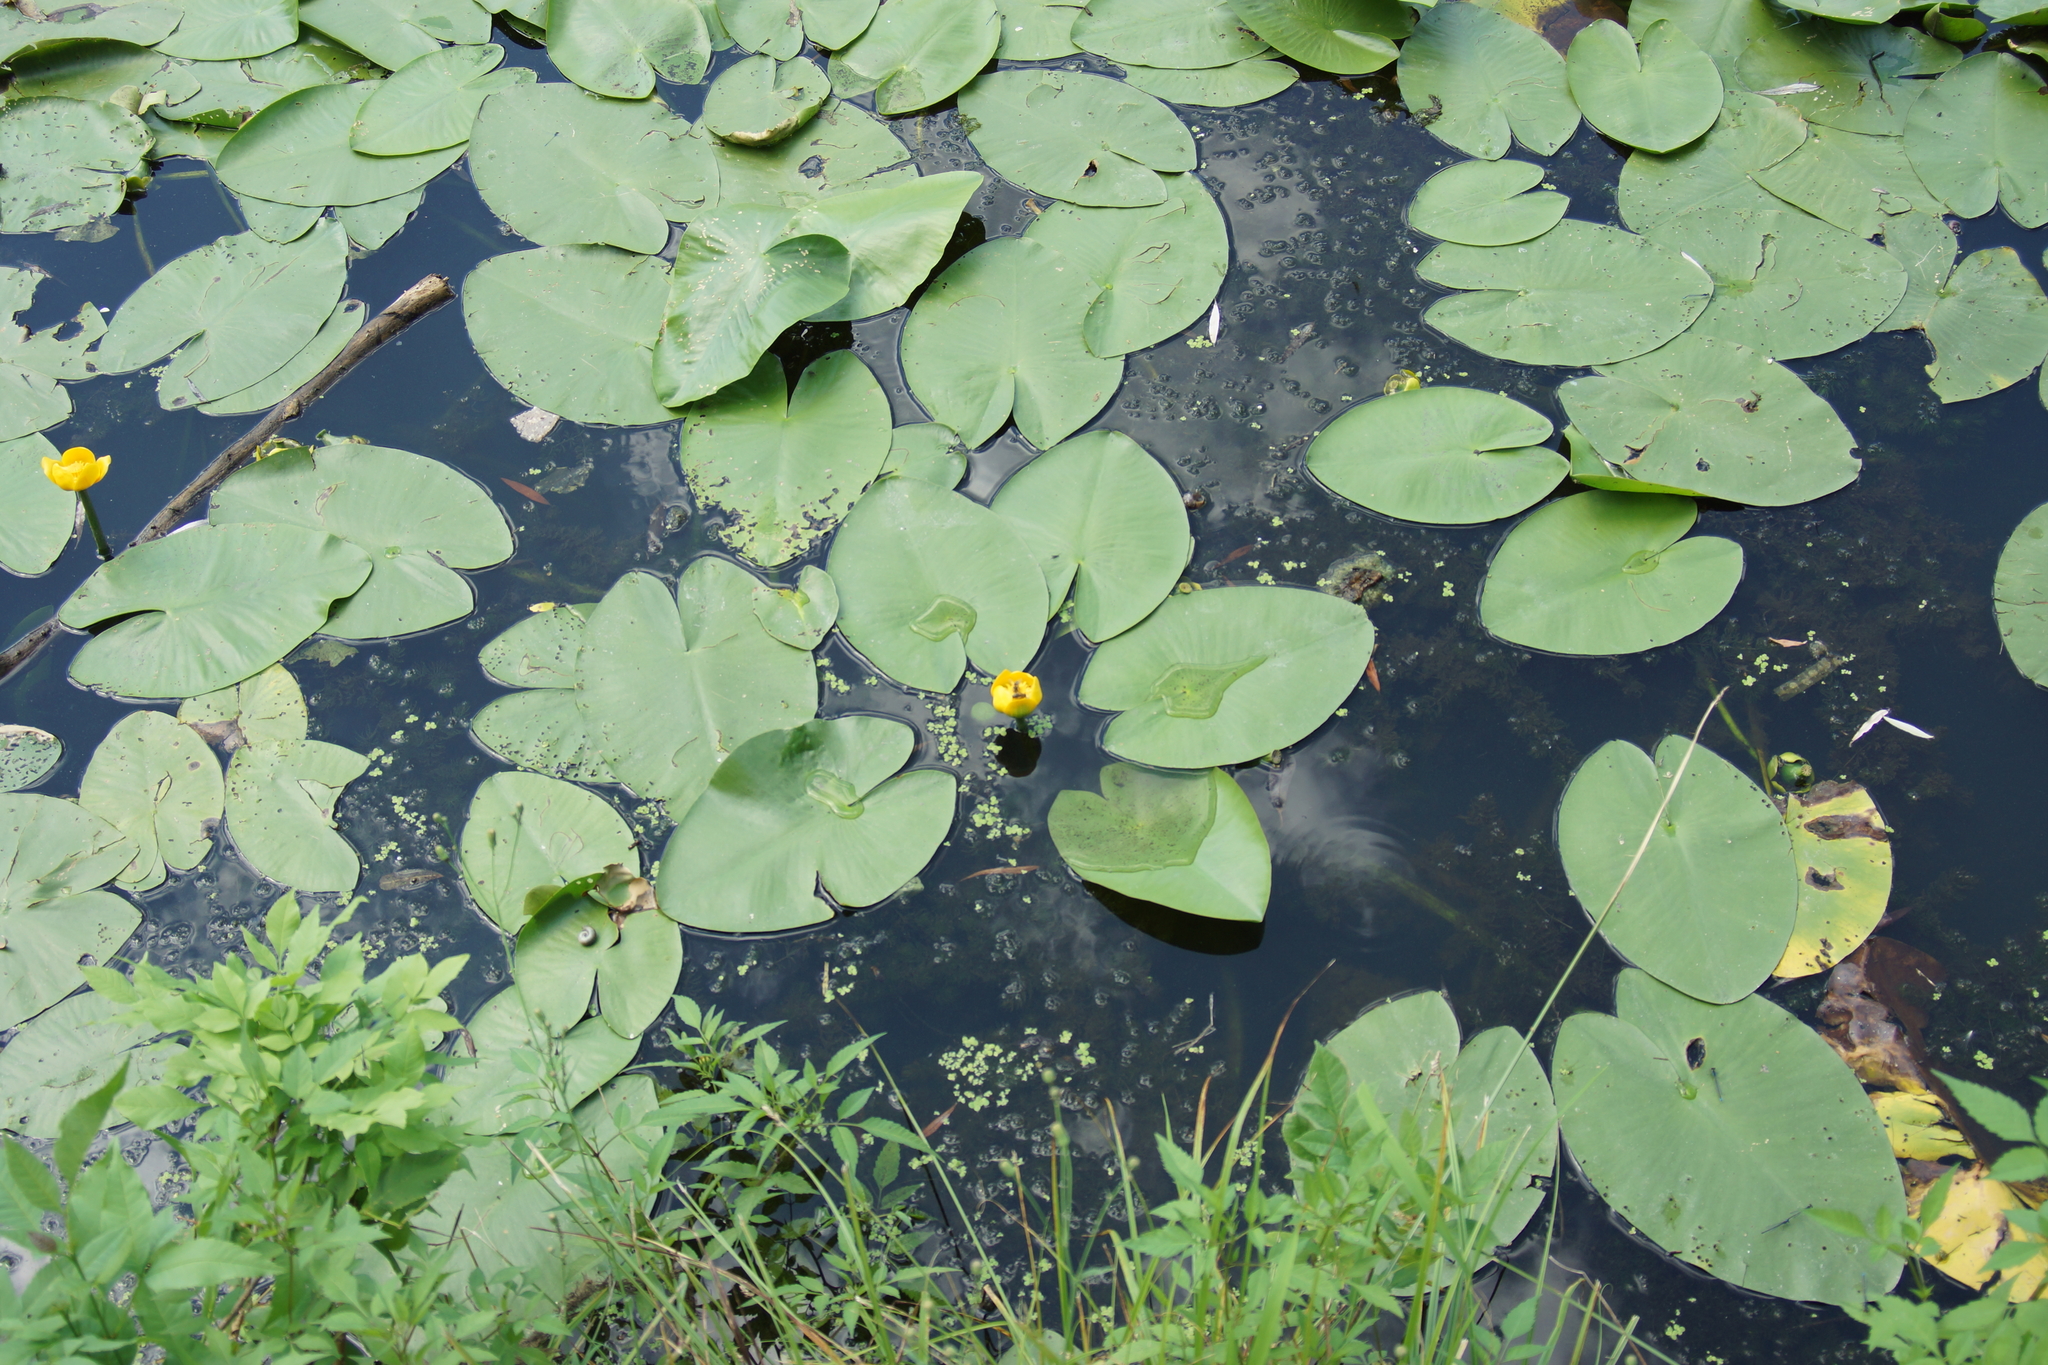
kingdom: Plantae
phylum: Tracheophyta
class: Magnoliopsida
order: Nymphaeales
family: Nymphaeaceae
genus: Nuphar
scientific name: Nuphar lutea
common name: Yellow water-lily
